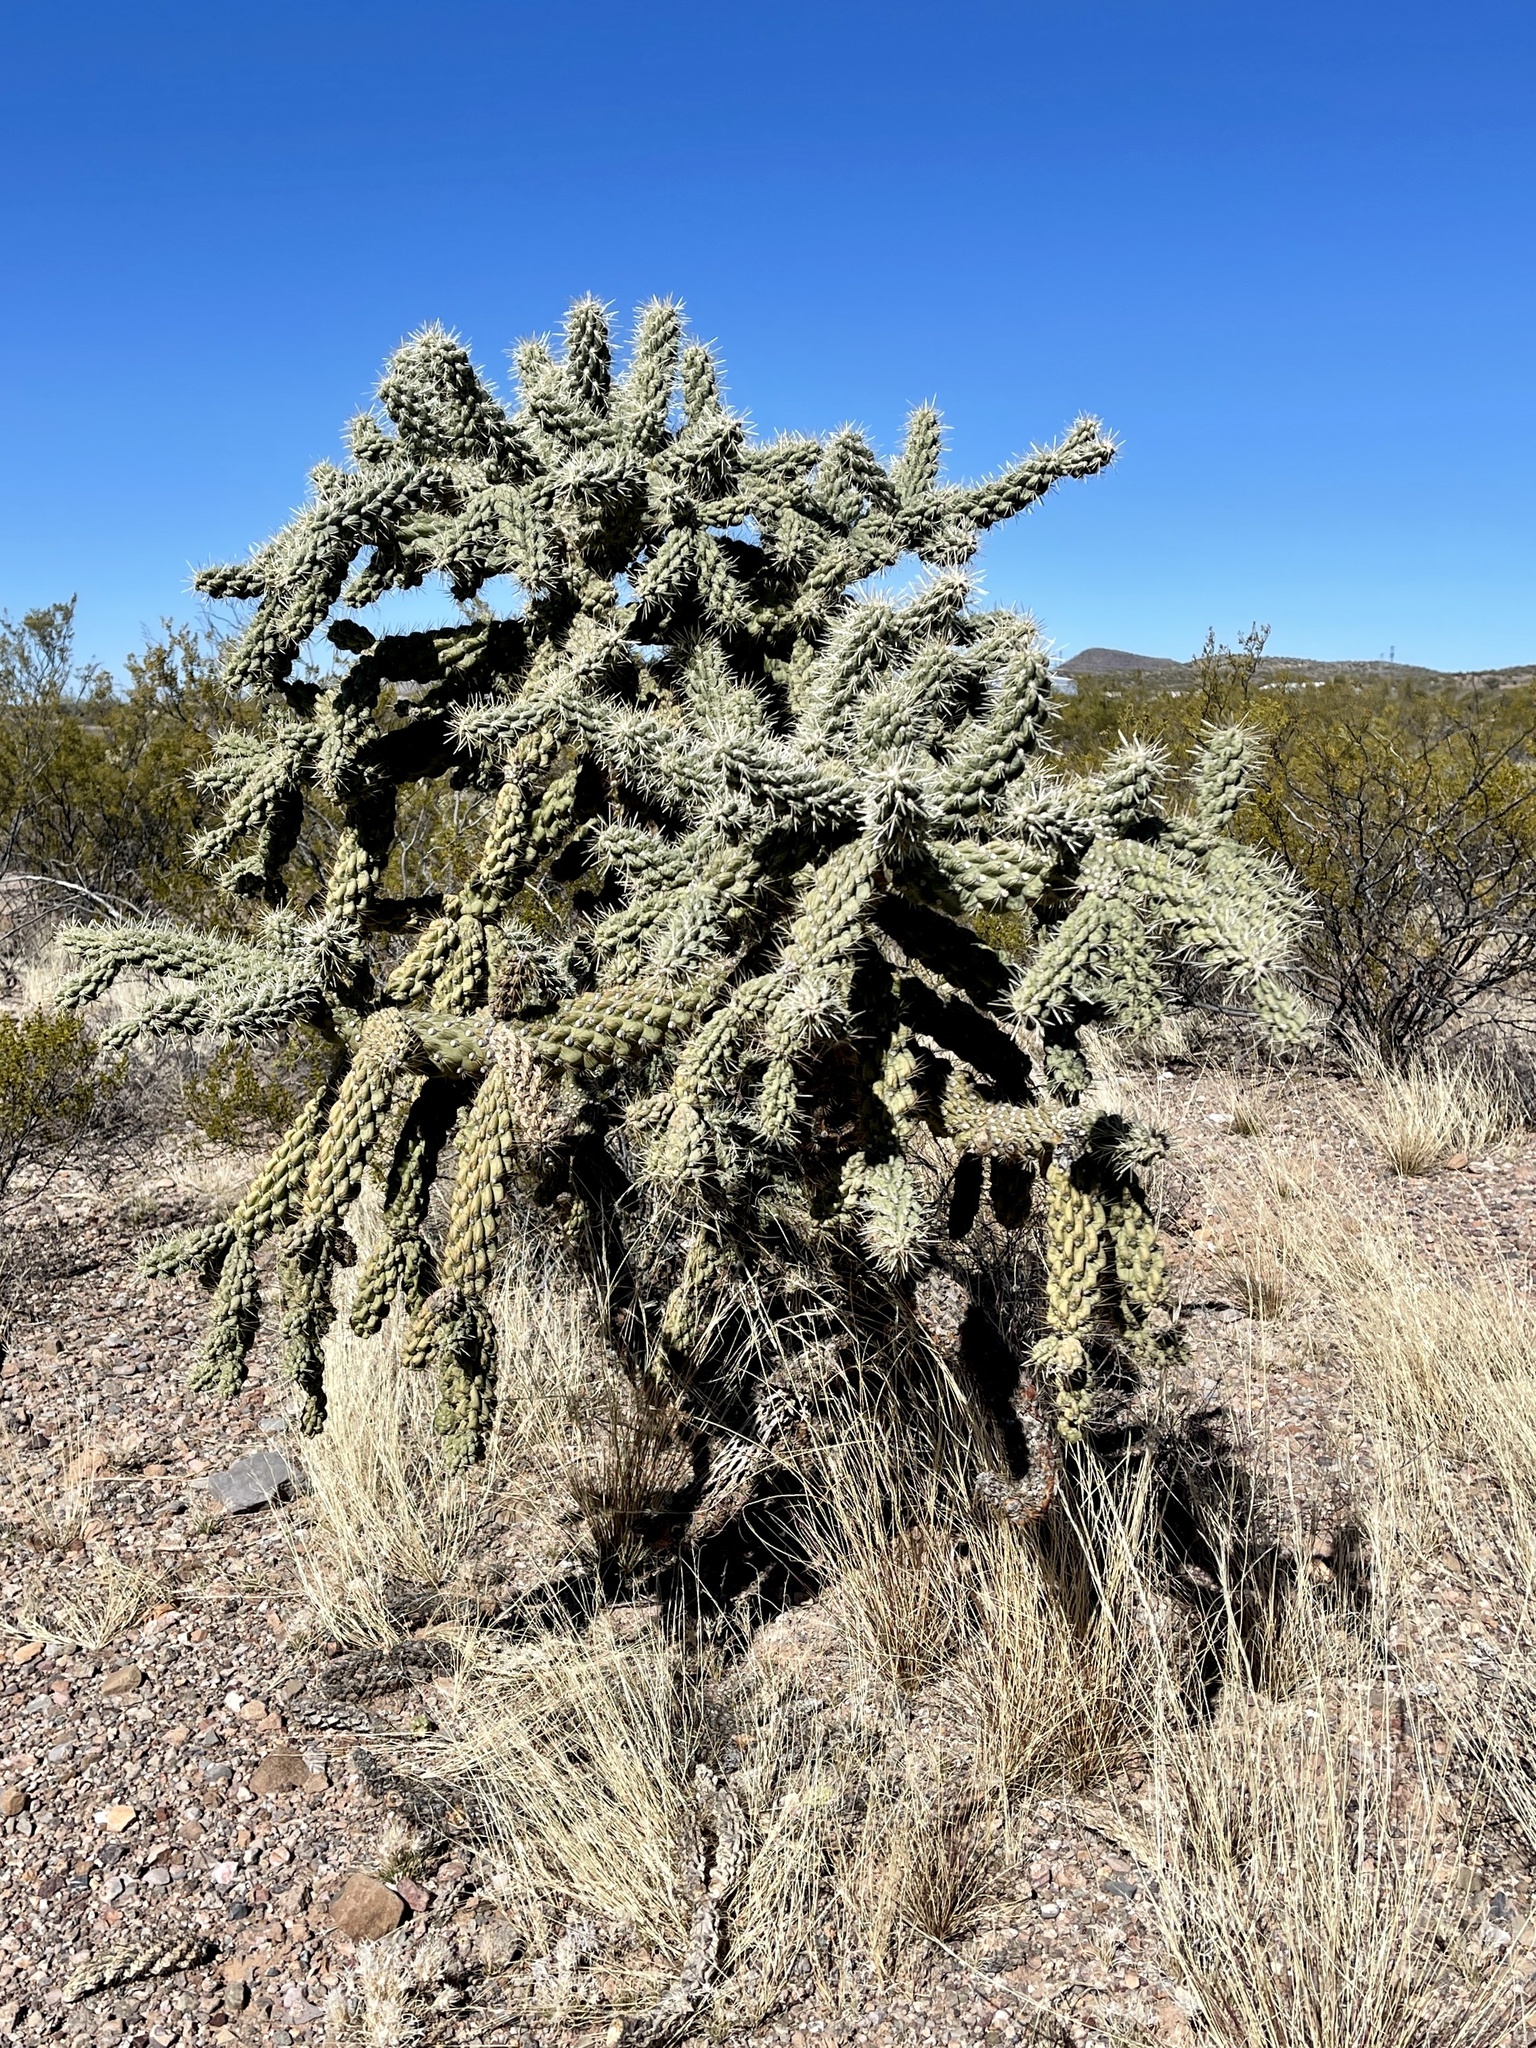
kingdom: Plantae
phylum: Tracheophyta
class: Magnoliopsida
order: Caryophyllales
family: Cactaceae
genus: Cylindropuntia
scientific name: Cylindropuntia fulgida
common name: Jumping cholla
